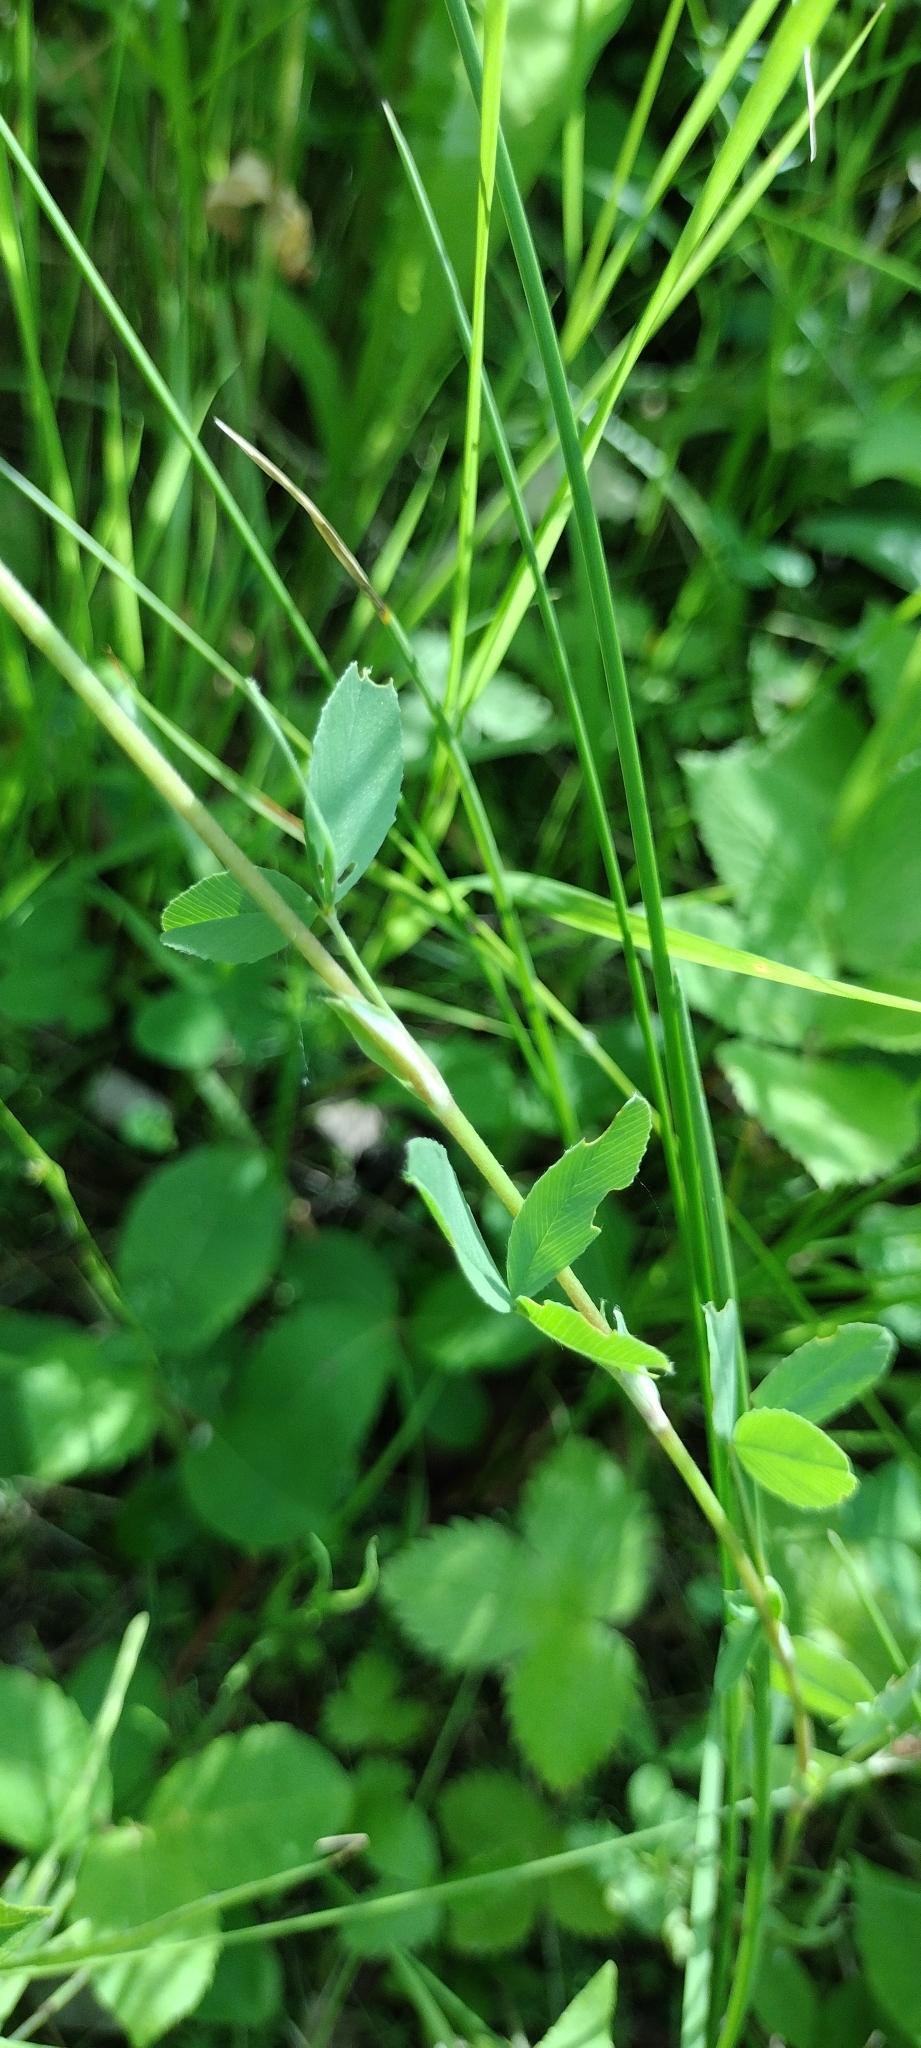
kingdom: Plantae
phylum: Tracheophyta
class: Magnoliopsida
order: Fabales
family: Fabaceae
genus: Trifolium
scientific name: Trifolium spadiceum
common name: Brown moor clover
